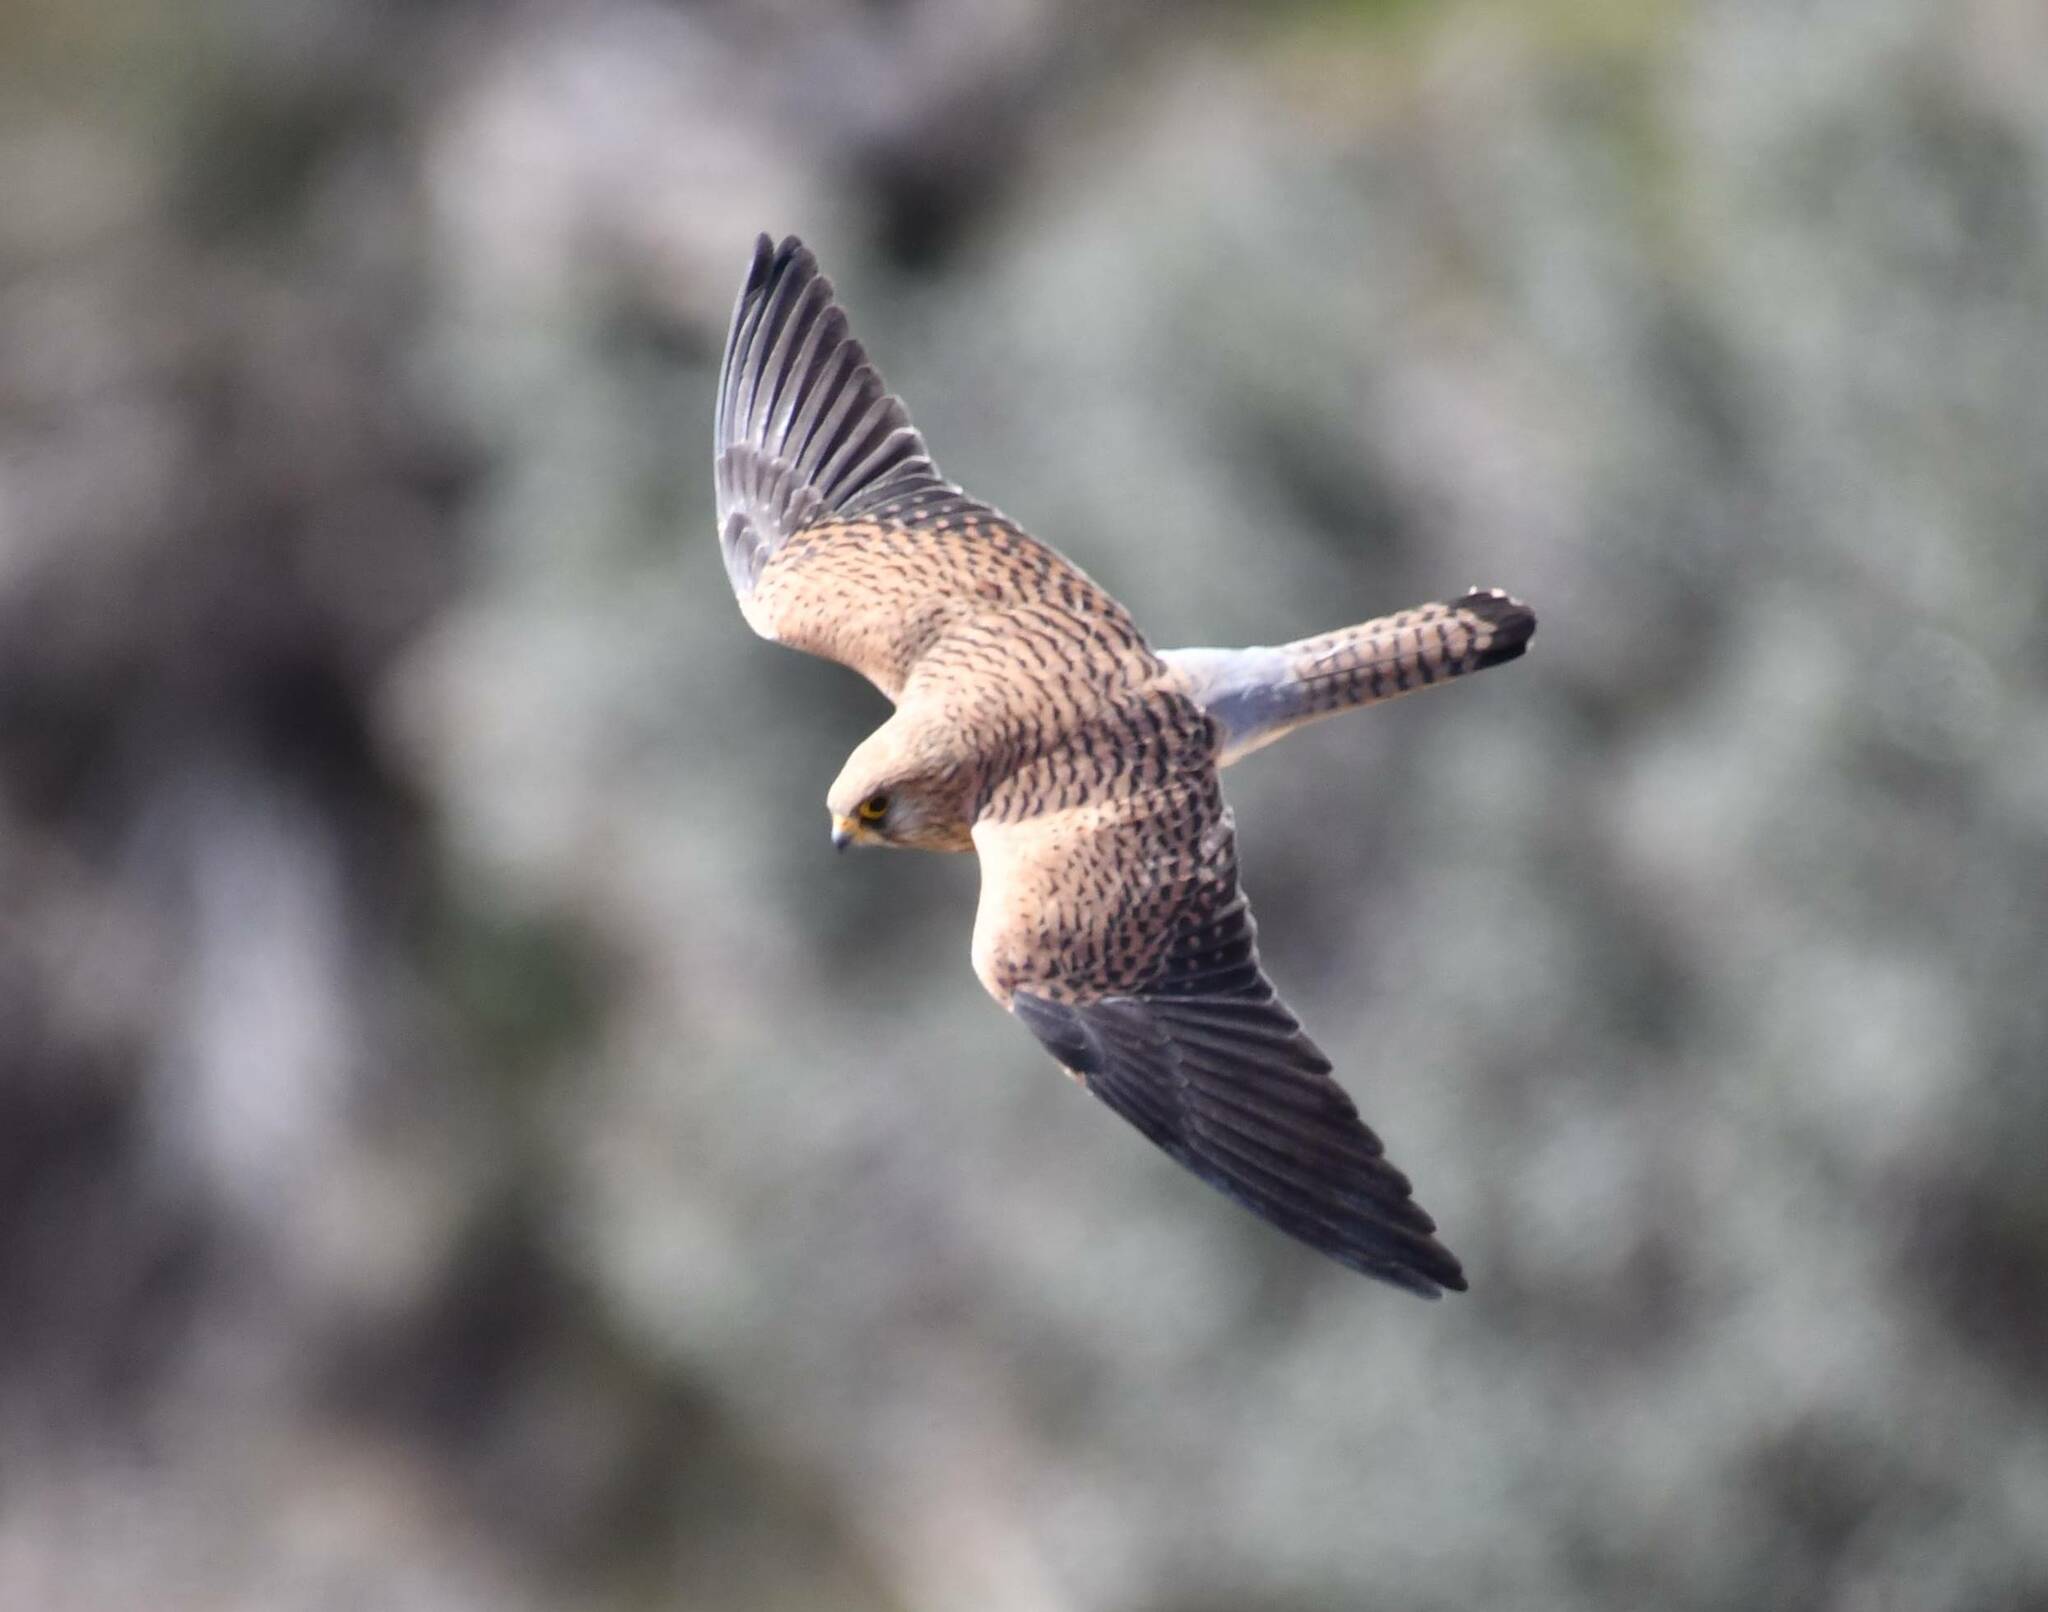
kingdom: Animalia
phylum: Chordata
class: Aves
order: Falconiformes
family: Falconidae
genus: Falco
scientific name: Falco tinnunculus
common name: Common kestrel
